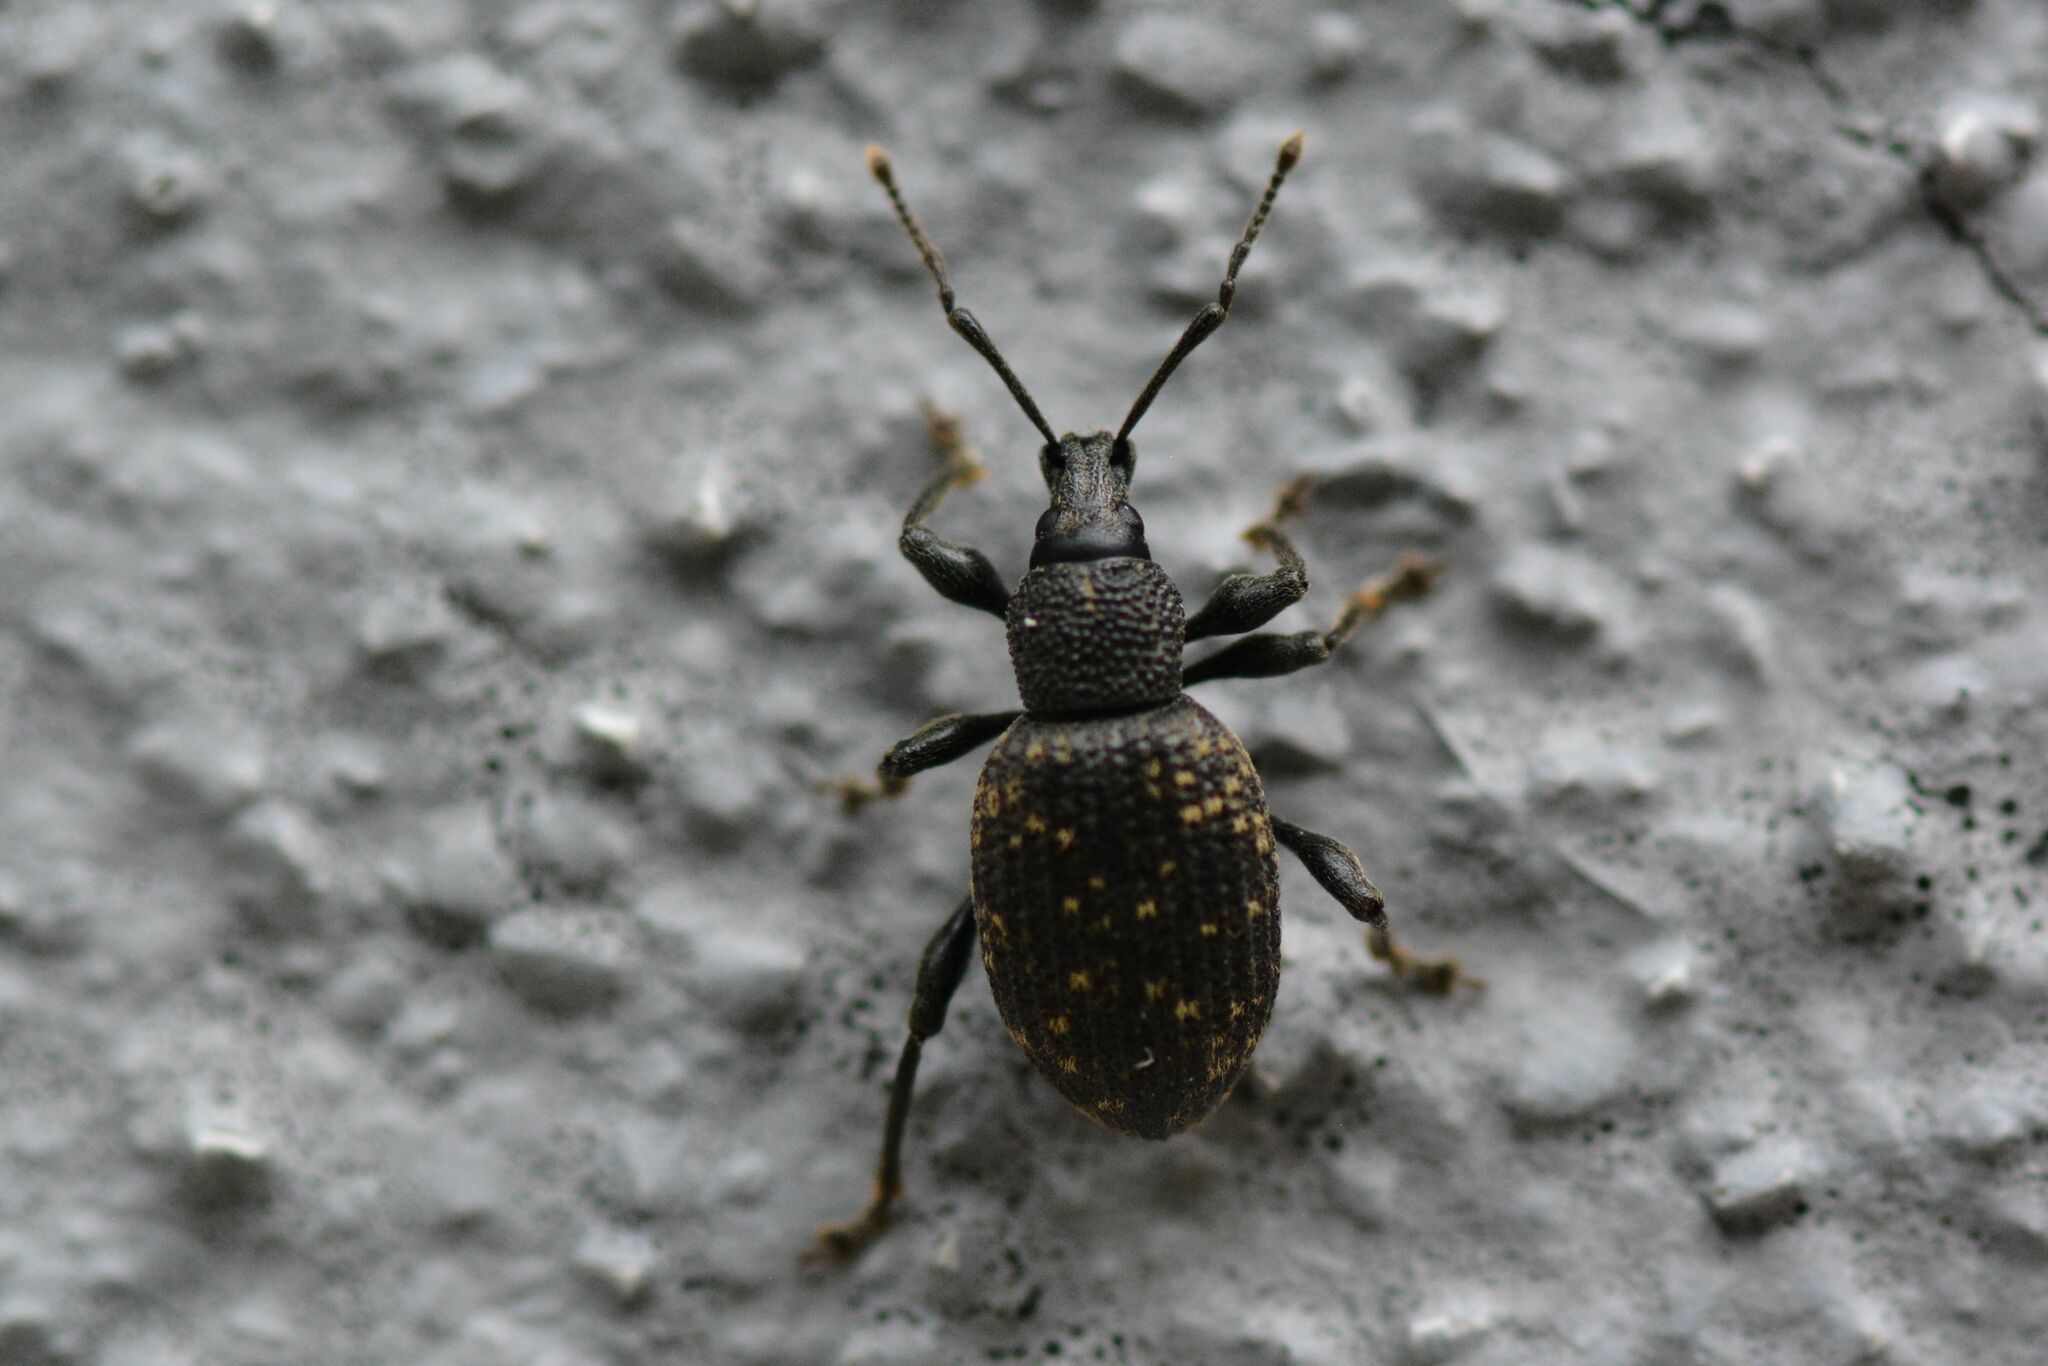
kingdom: Animalia
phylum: Arthropoda
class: Insecta
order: Coleoptera
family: Curculionidae
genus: Otiorhynchus
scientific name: Otiorhynchus sulcatus
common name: Black vine weevil
